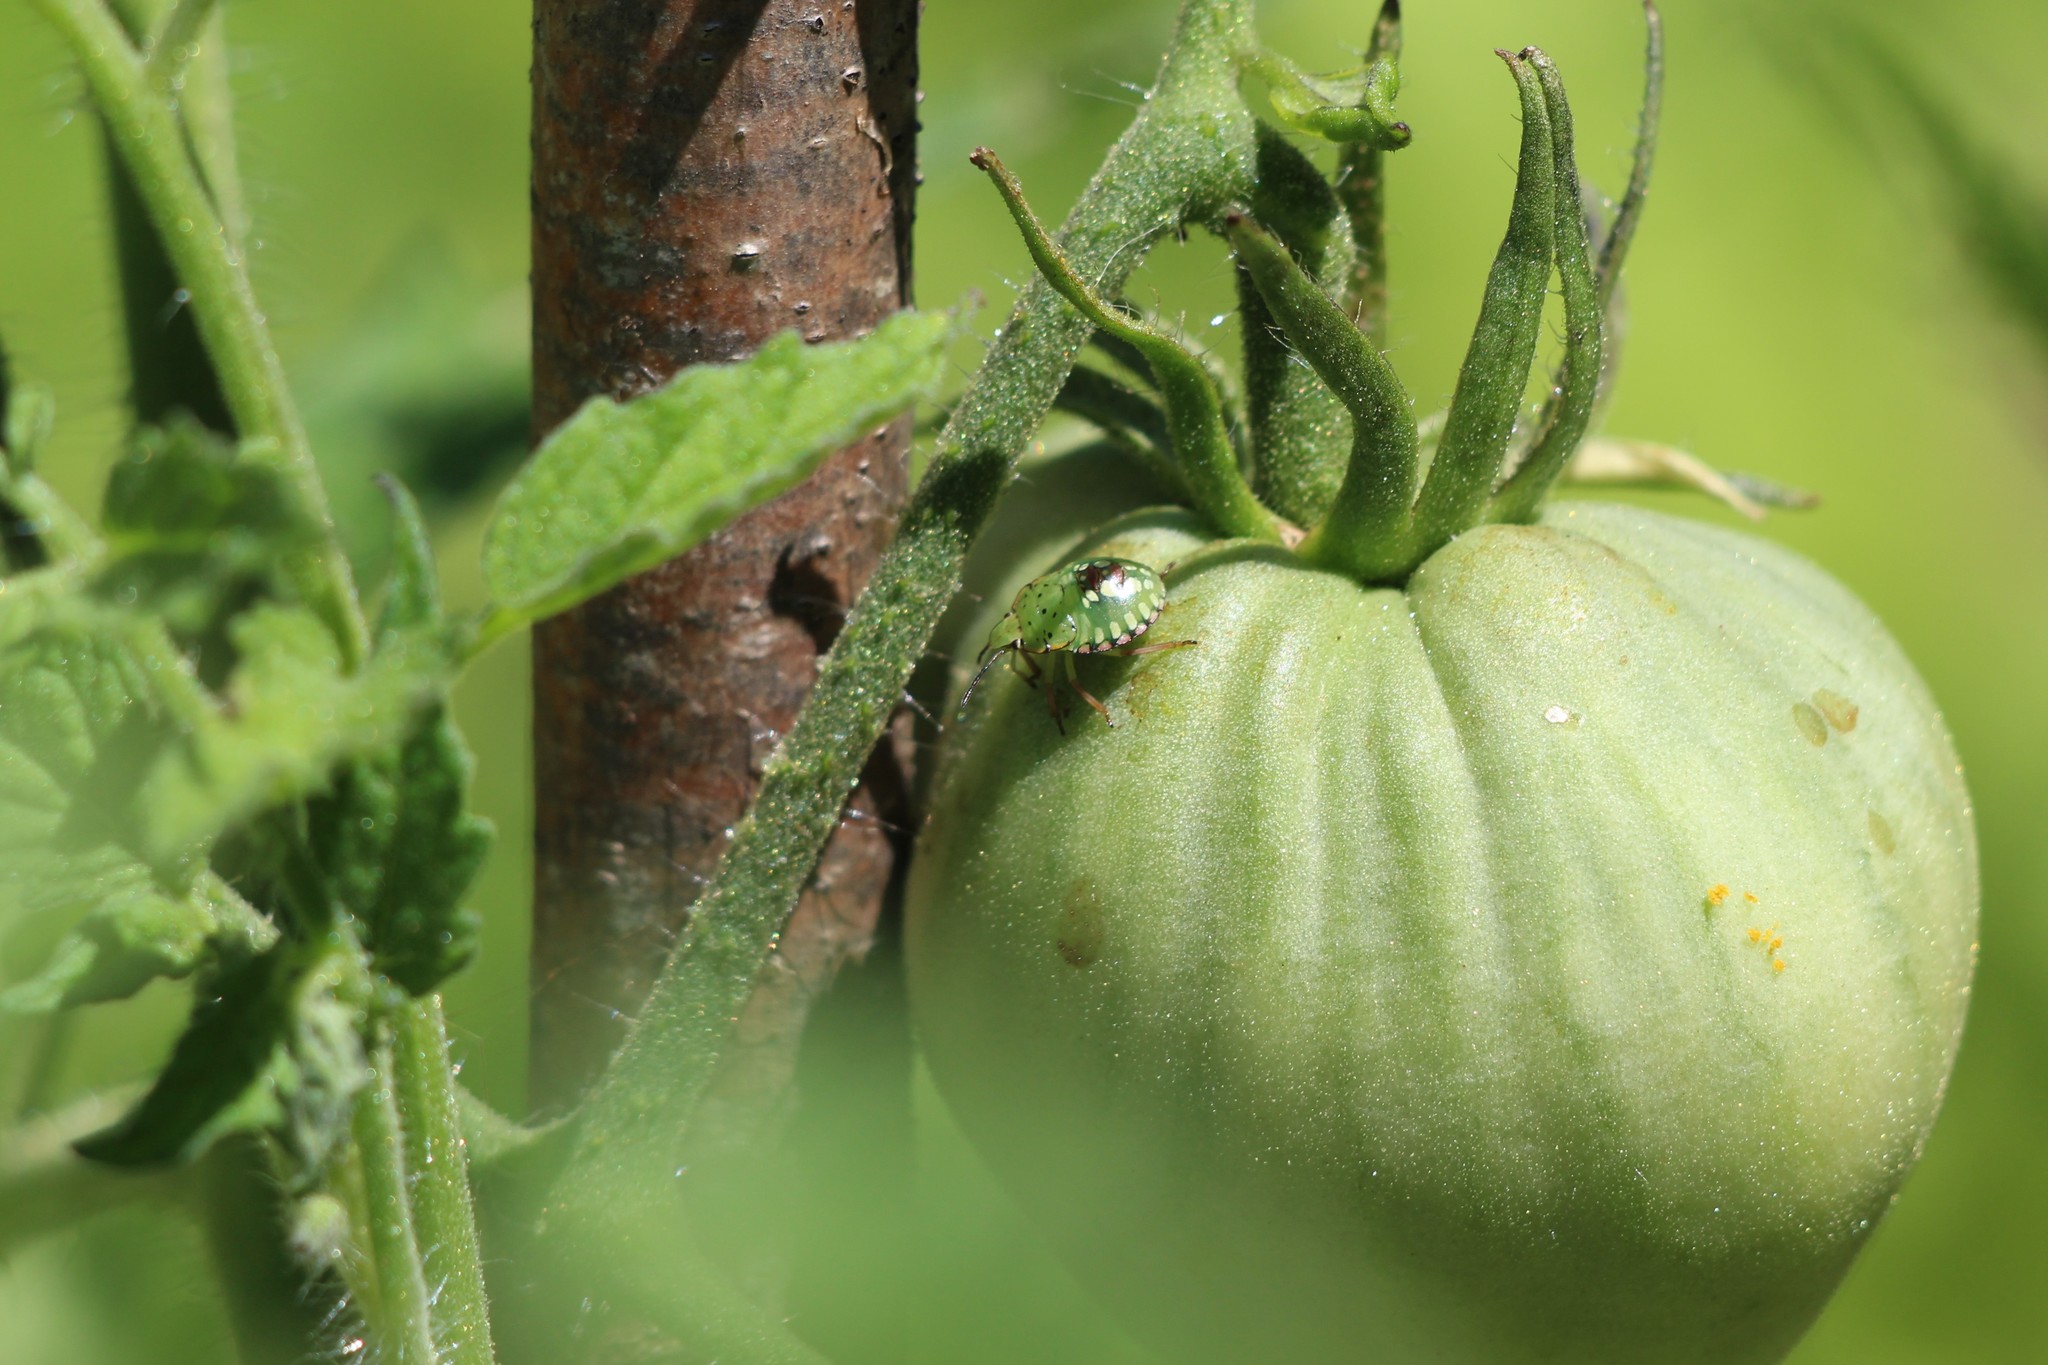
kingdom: Animalia
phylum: Arthropoda
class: Insecta
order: Hemiptera
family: Pentatomidae
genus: Nezara
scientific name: Nezara viridula
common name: Southern green stink bug
